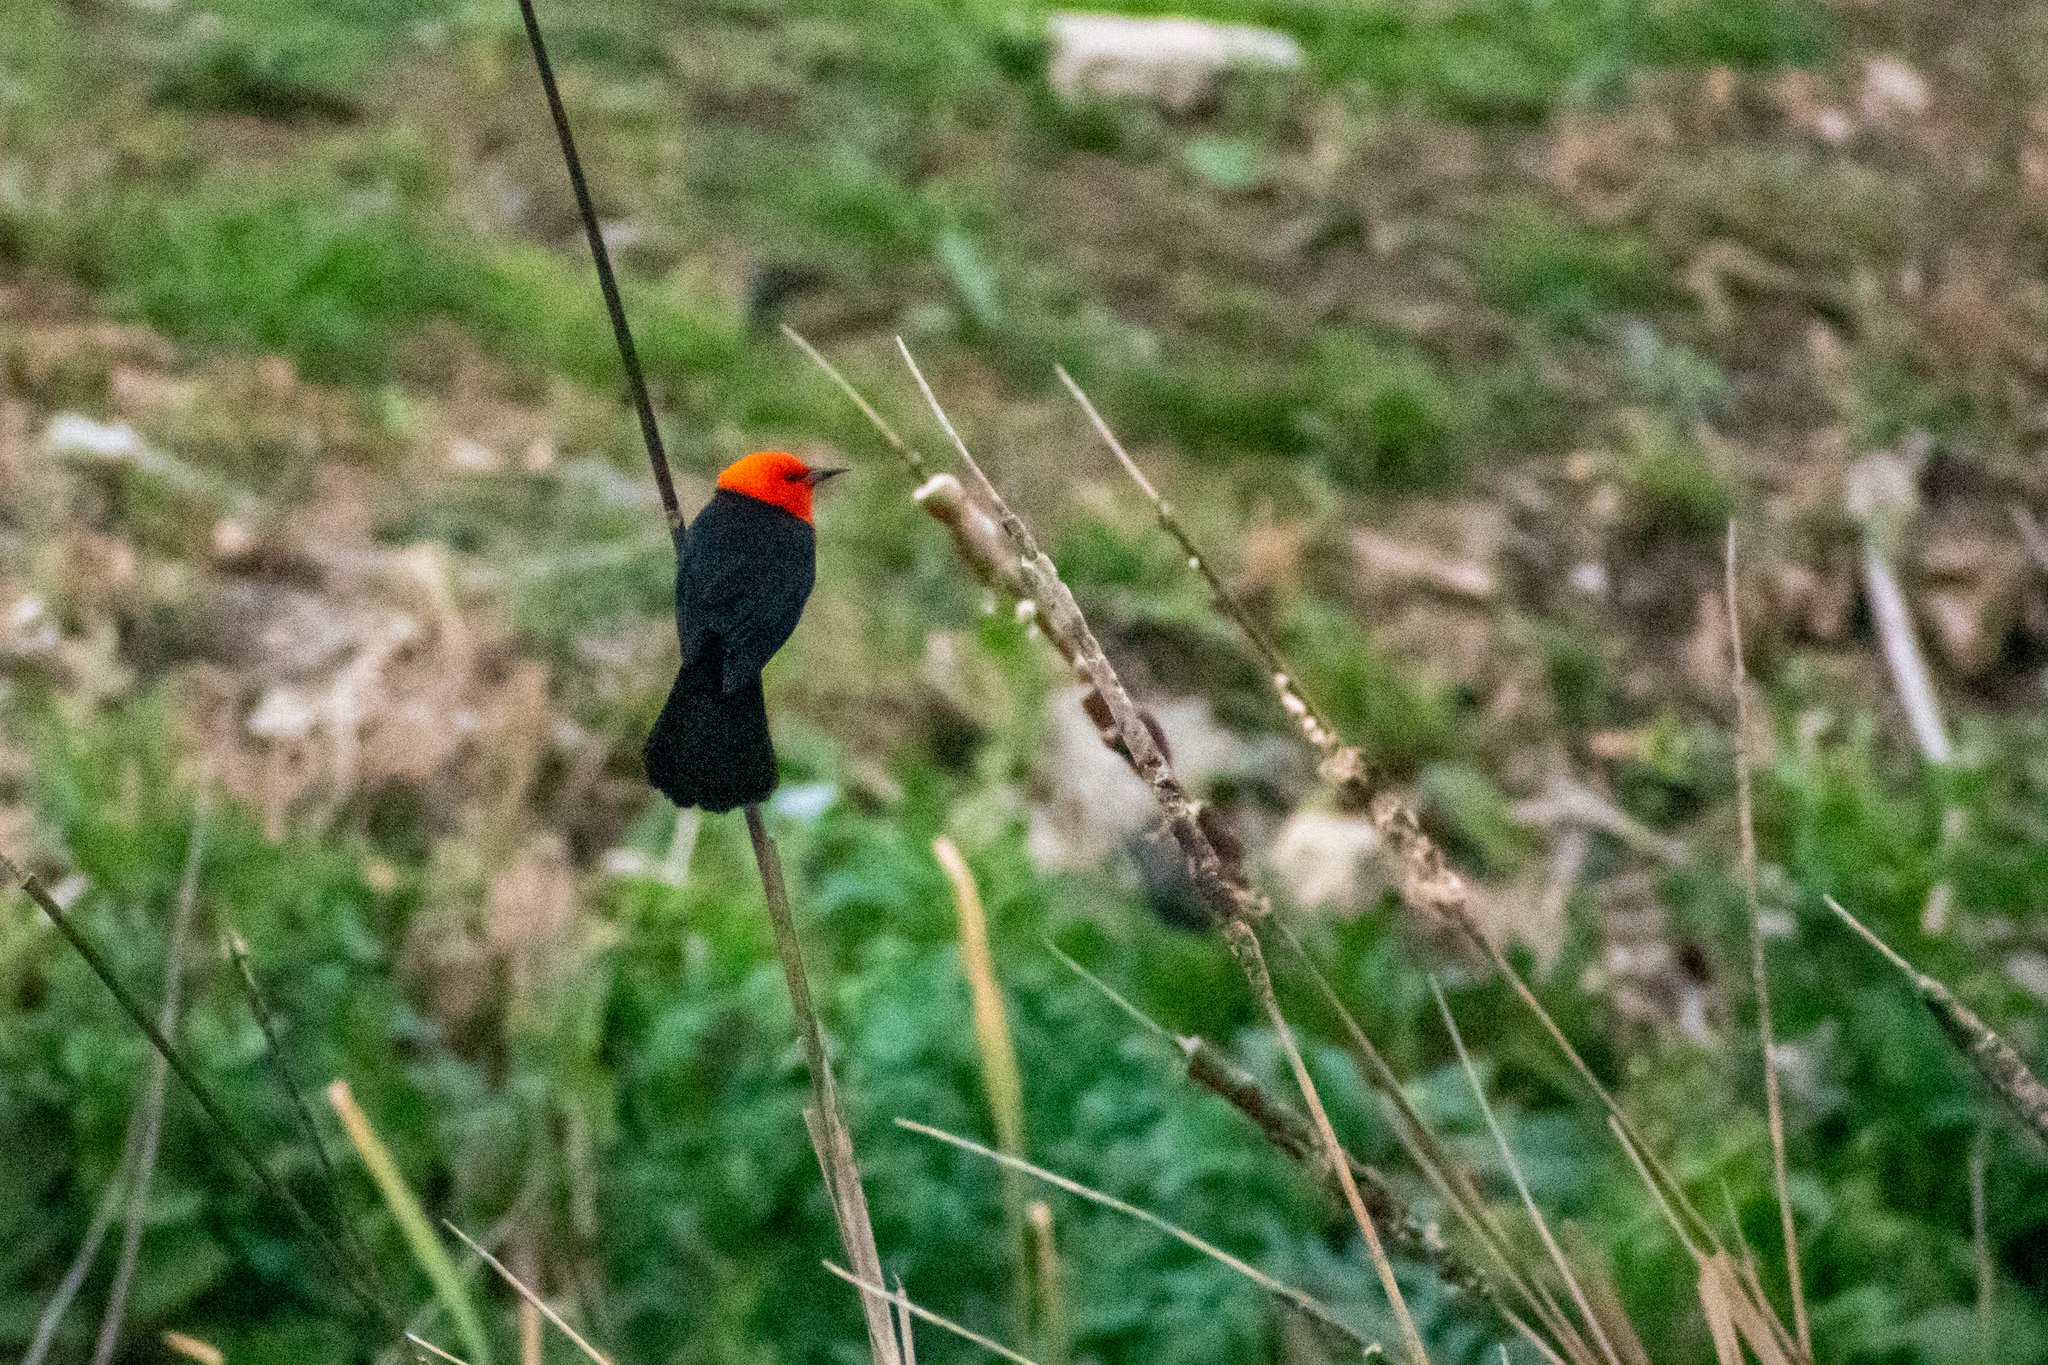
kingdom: Animalia
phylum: Chordata
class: Aves
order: Passeriformes
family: Icteridae
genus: Amblyramphus
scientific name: Amblyramphus holosericeus
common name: Scarlet-headed blackbird
